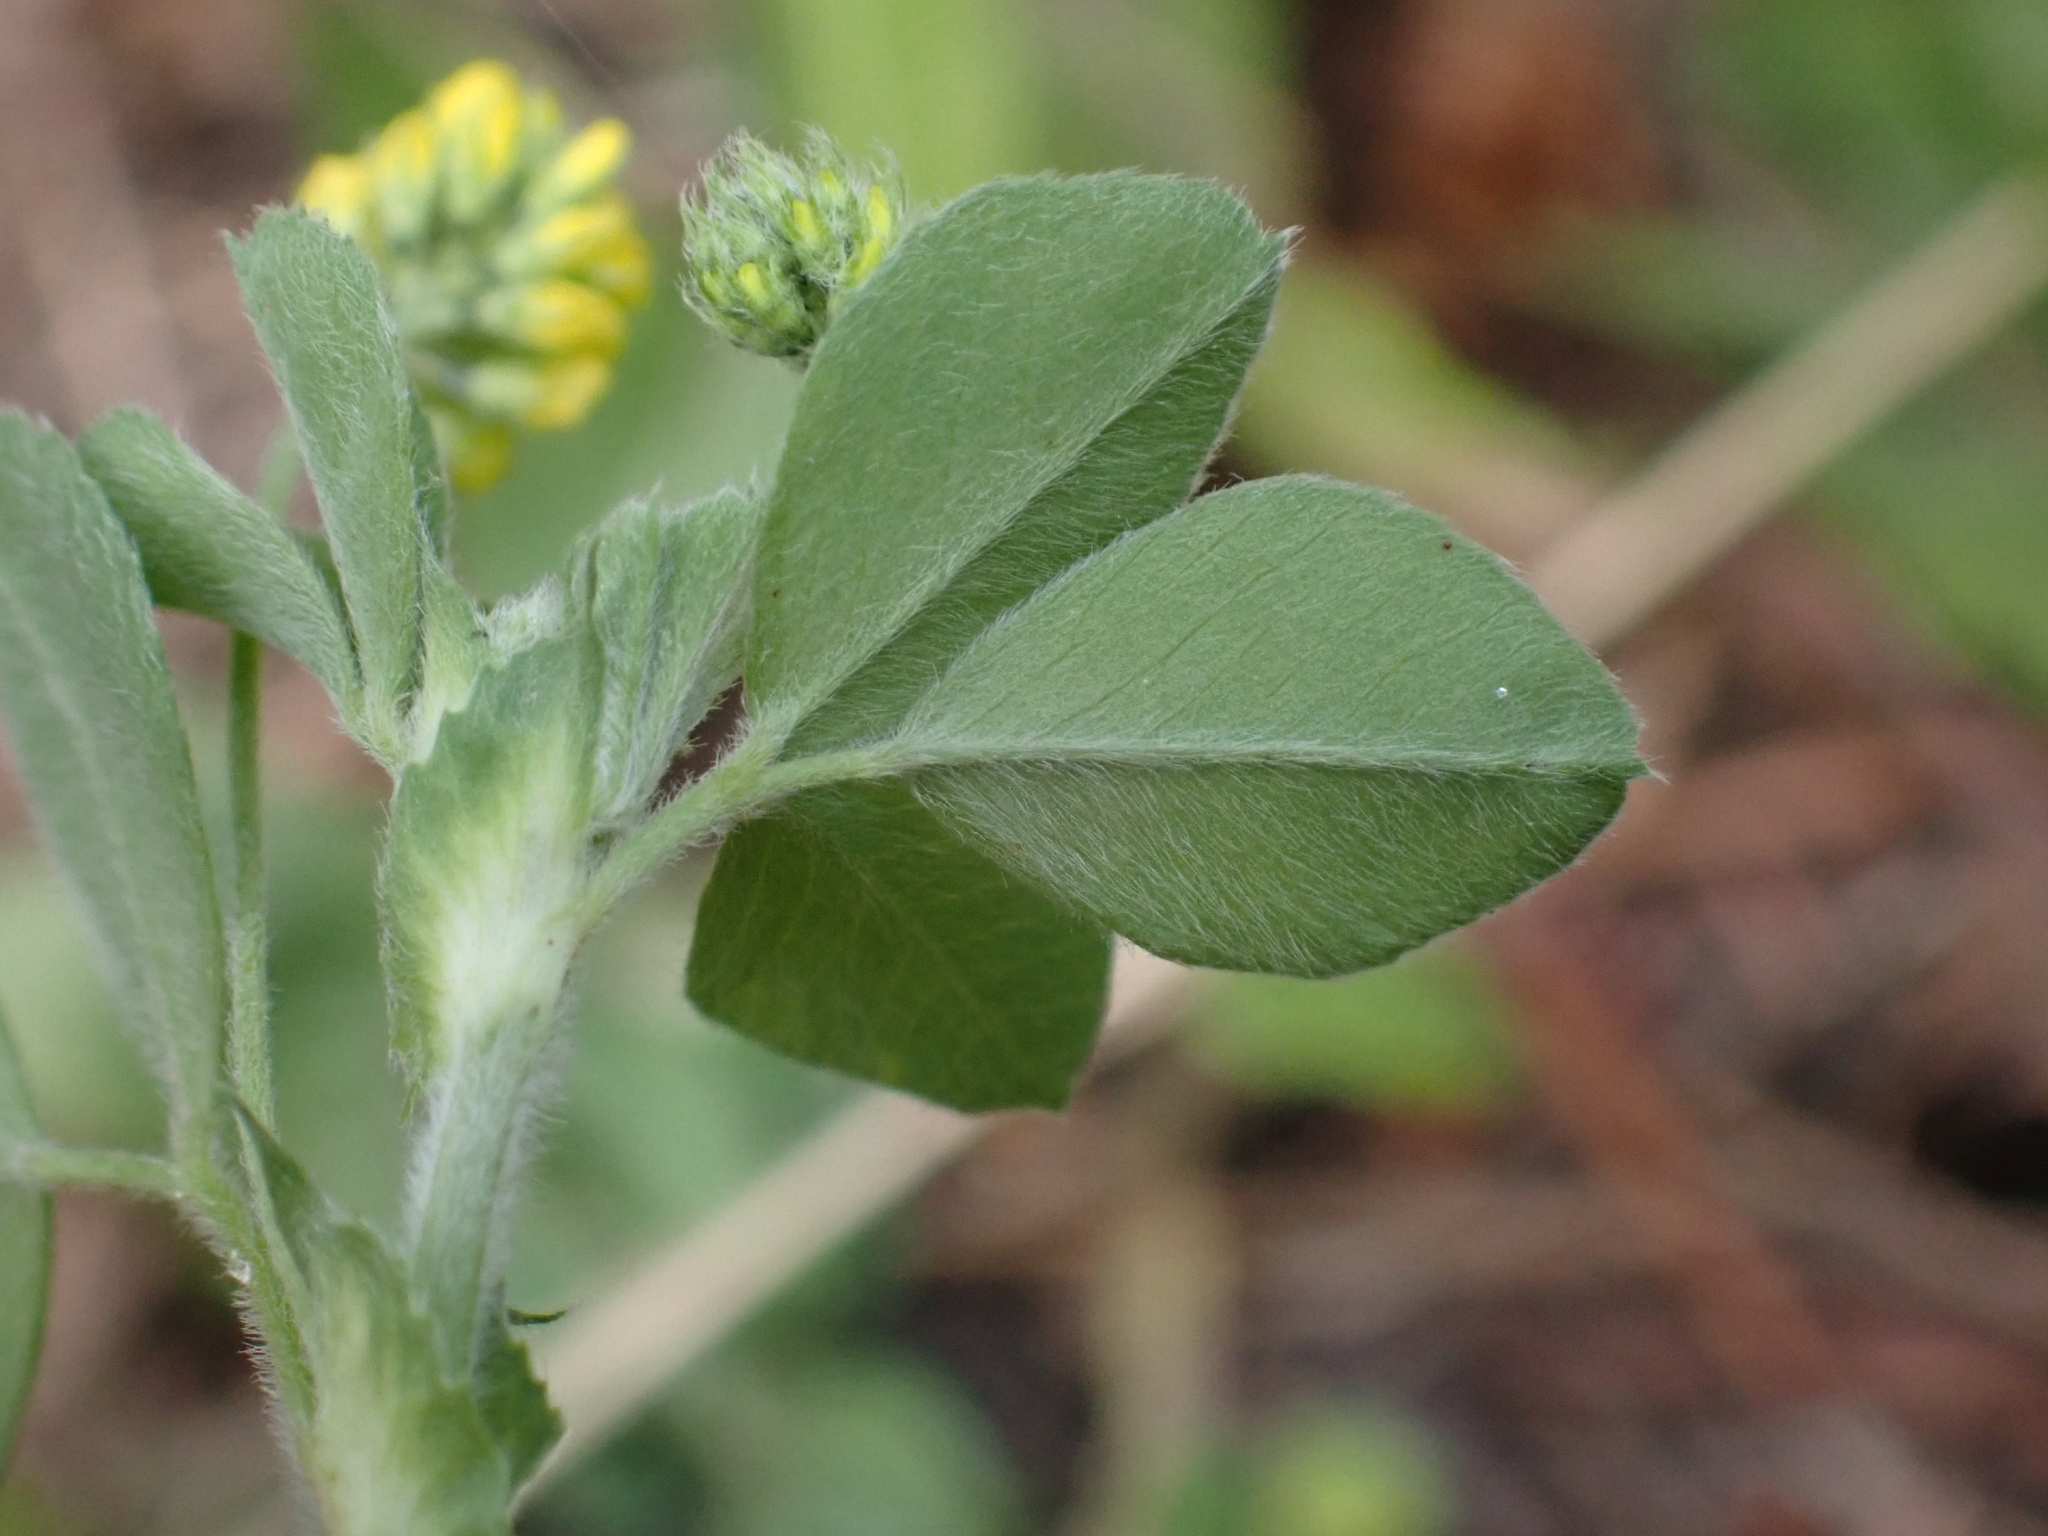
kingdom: Plantae
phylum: Tracheophyta
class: Magnoliopsida
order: Fabales
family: Fabaceae
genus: Medicago
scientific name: Medicago lupulina
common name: Black medick
